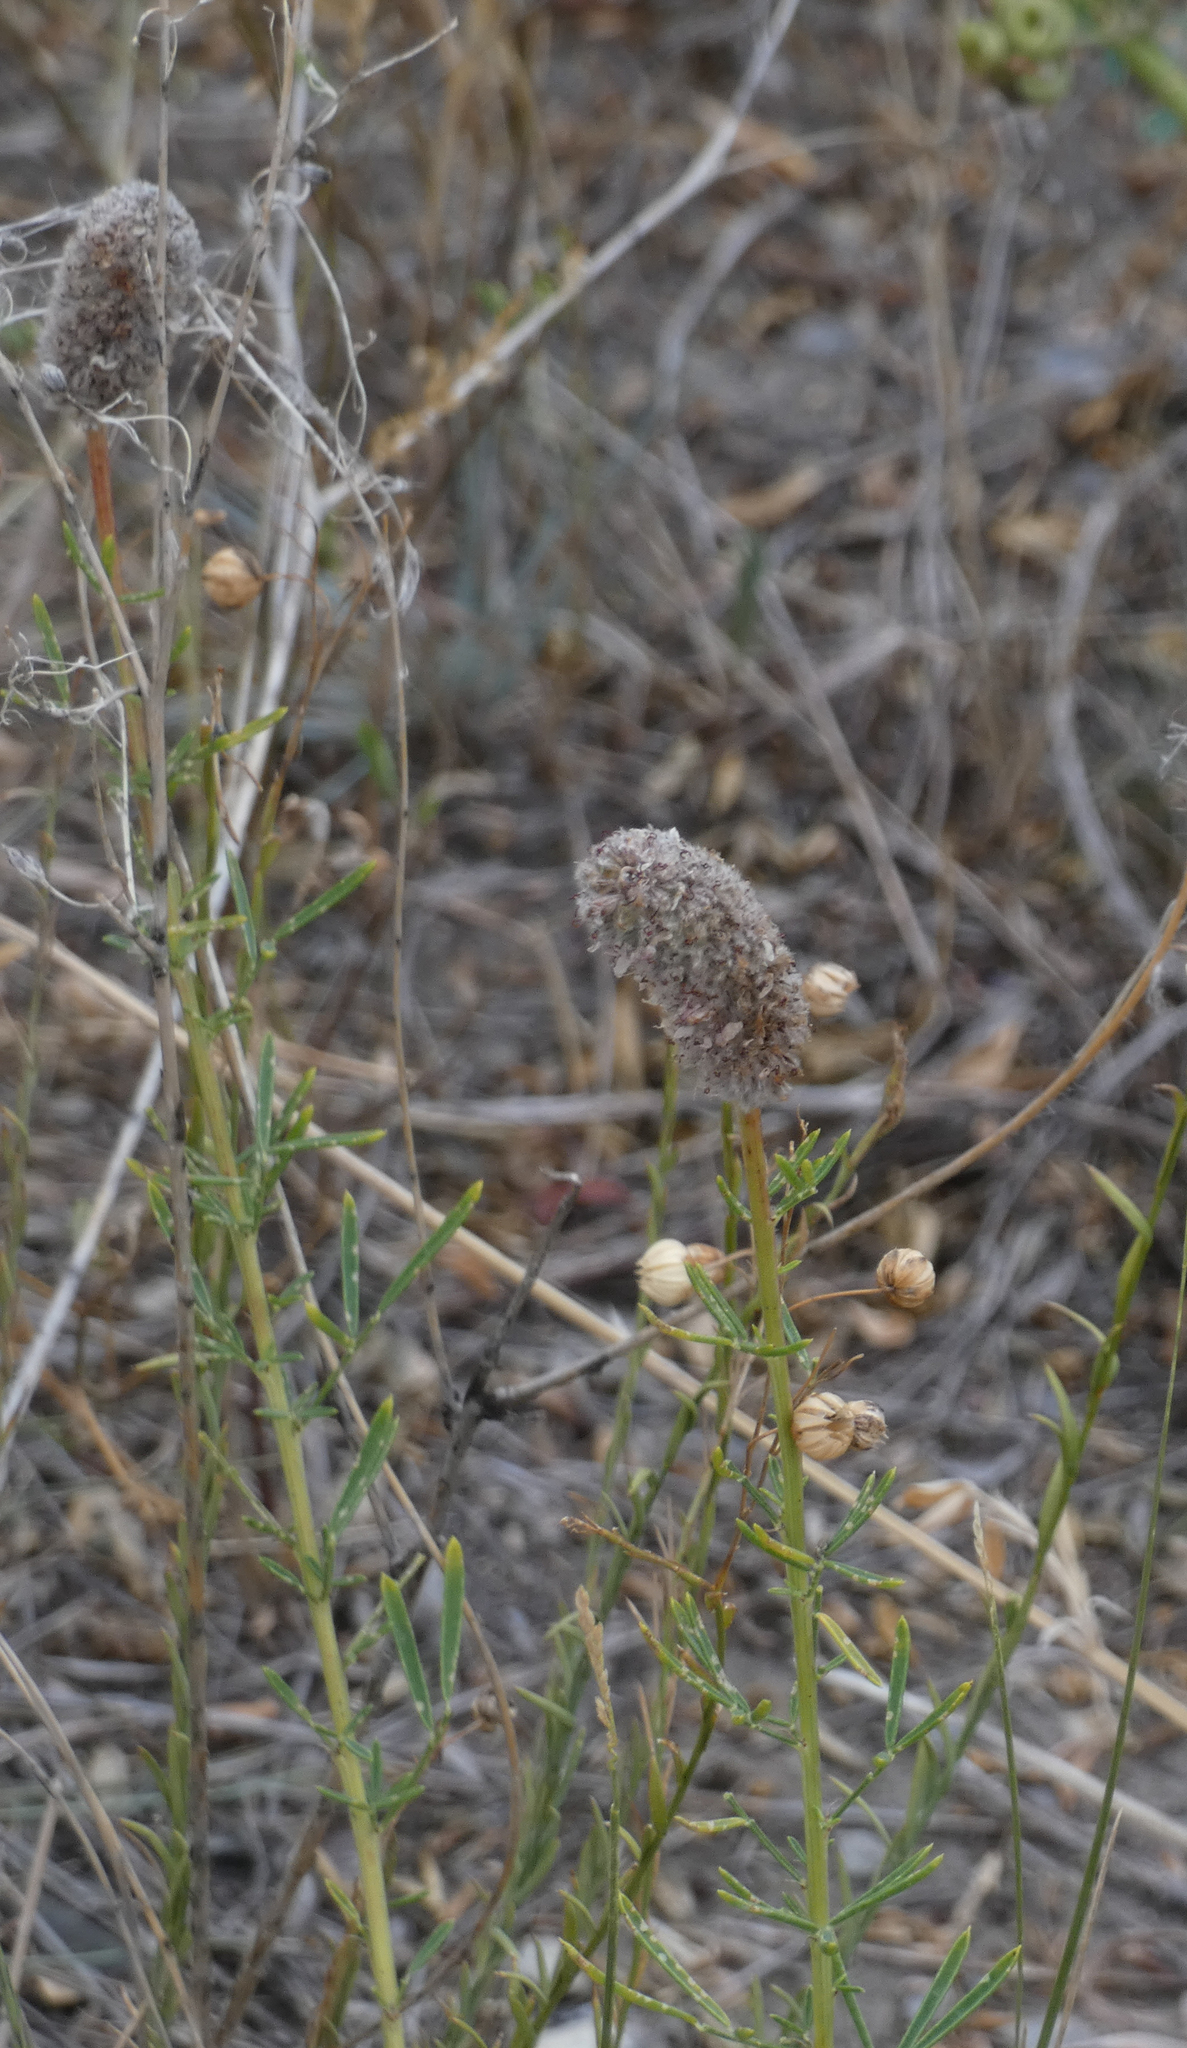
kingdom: Plantae
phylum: Tracheophyta
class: Magnoliopsida
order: Fabales
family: Fabaceae
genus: Dalea
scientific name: Dalea purpurea
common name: Purple prairie-clover
